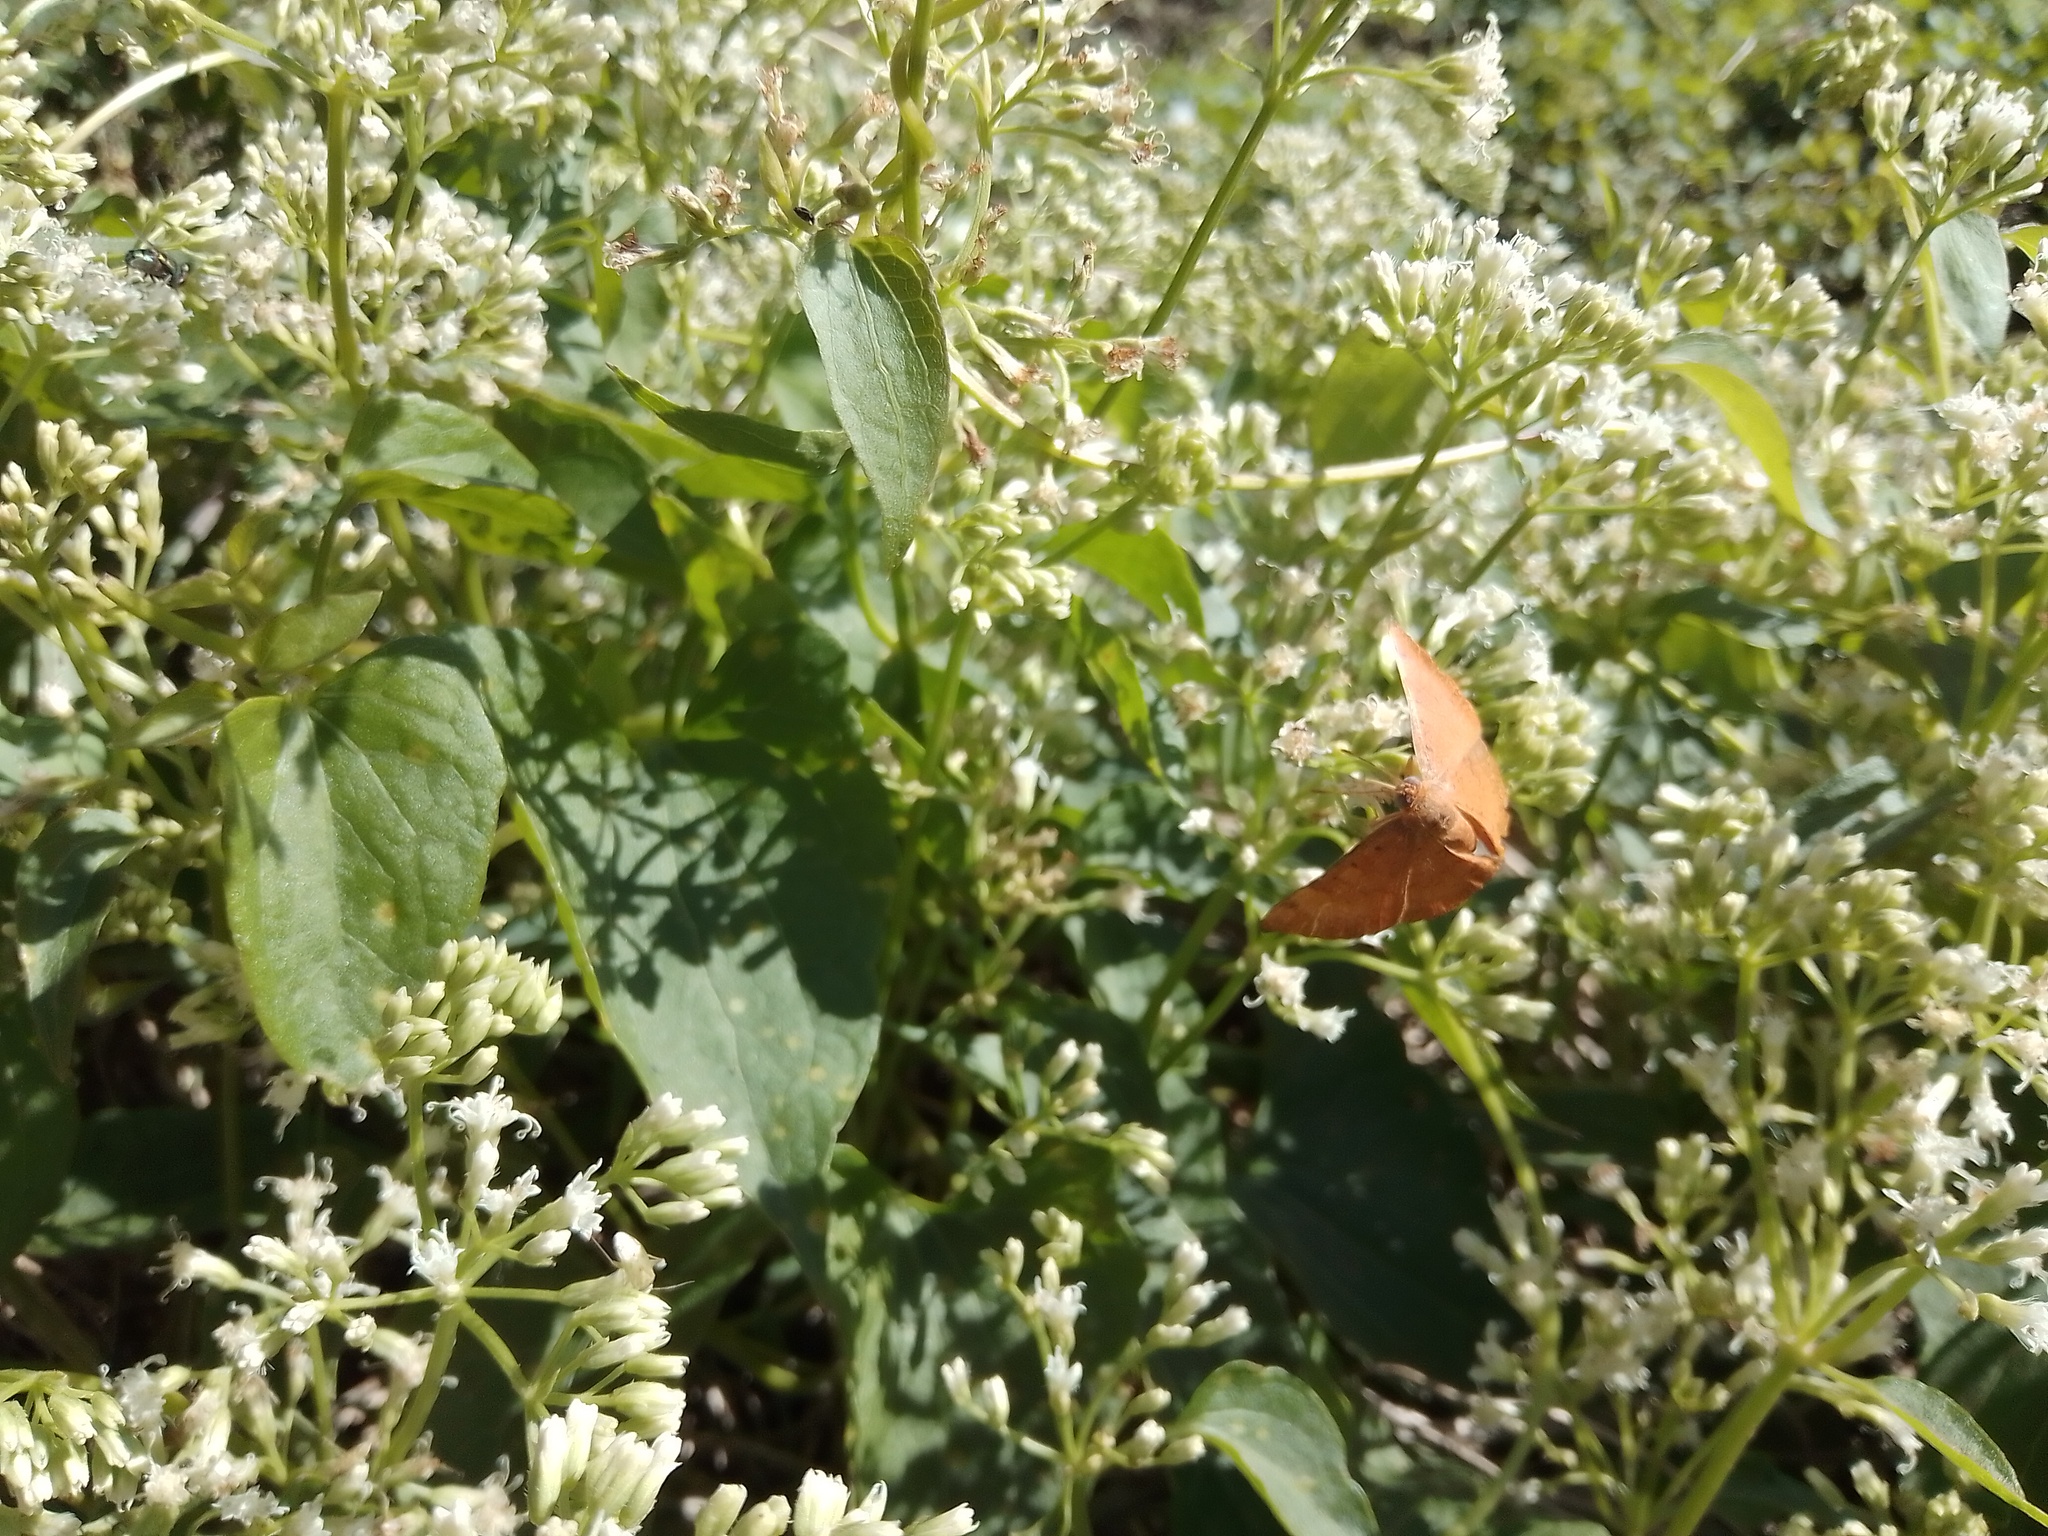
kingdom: Animalia
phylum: Arthropoda
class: Insecta
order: Lepidoptera
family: Lycaenidae
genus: Emesis
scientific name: Emesis russula
